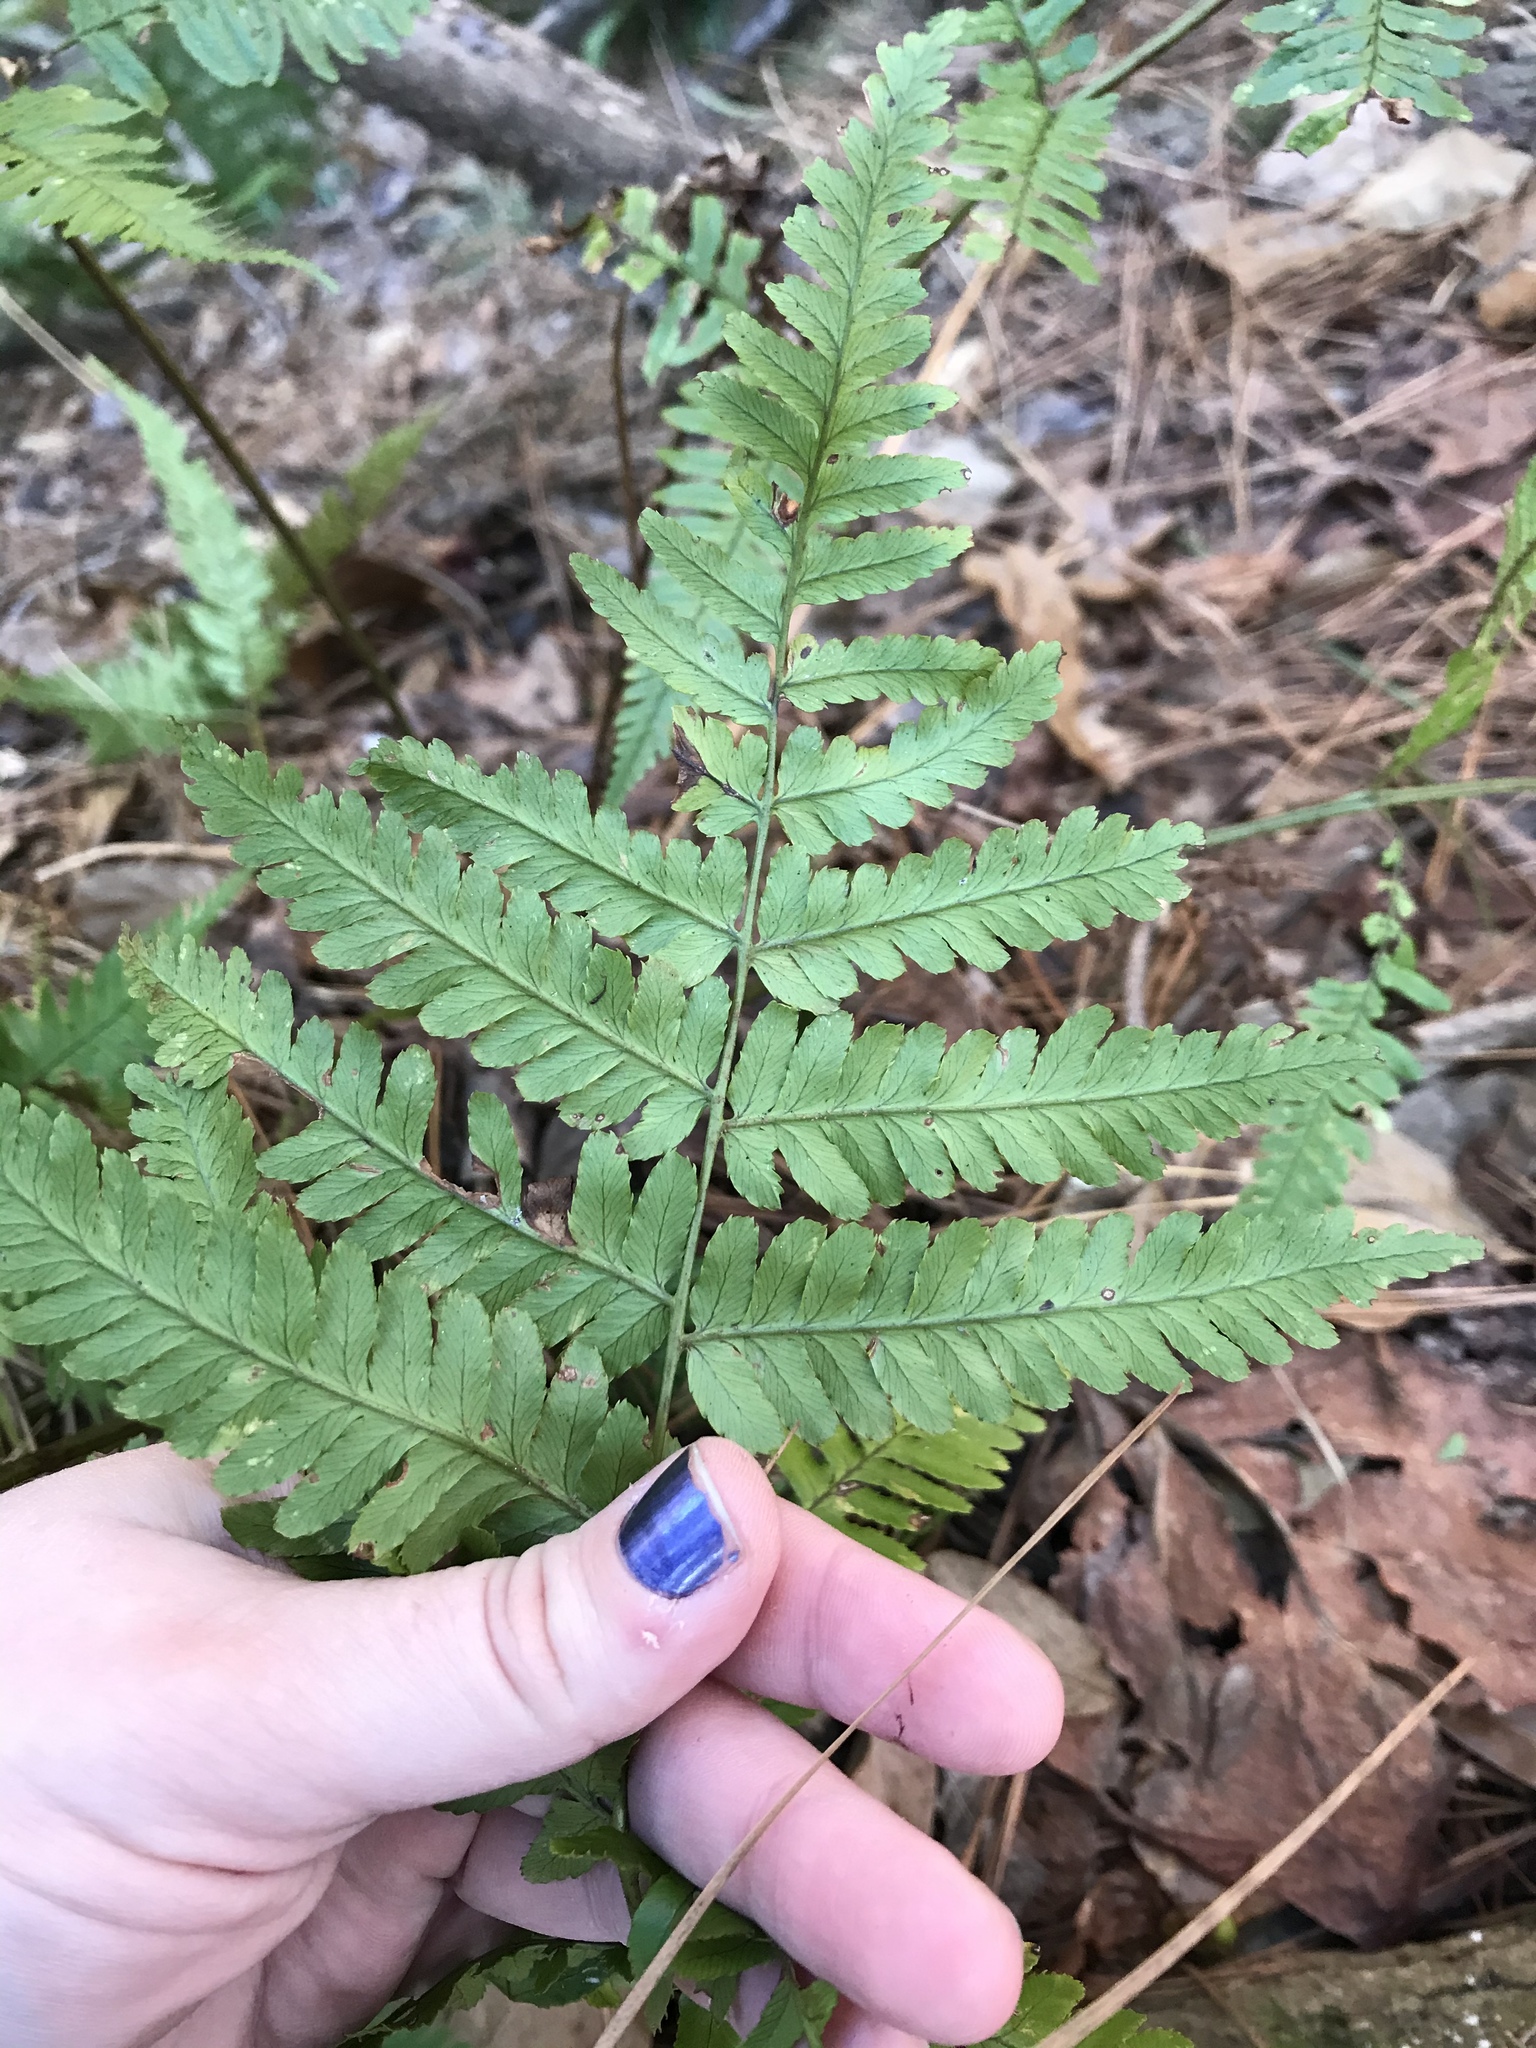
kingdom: Plantae
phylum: Tracheophyta
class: Polypodiopsida
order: Polypodiales
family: Dryopteridaceae
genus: Dryopteris
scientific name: Dryopteris erythrosora
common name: Autumn fern
